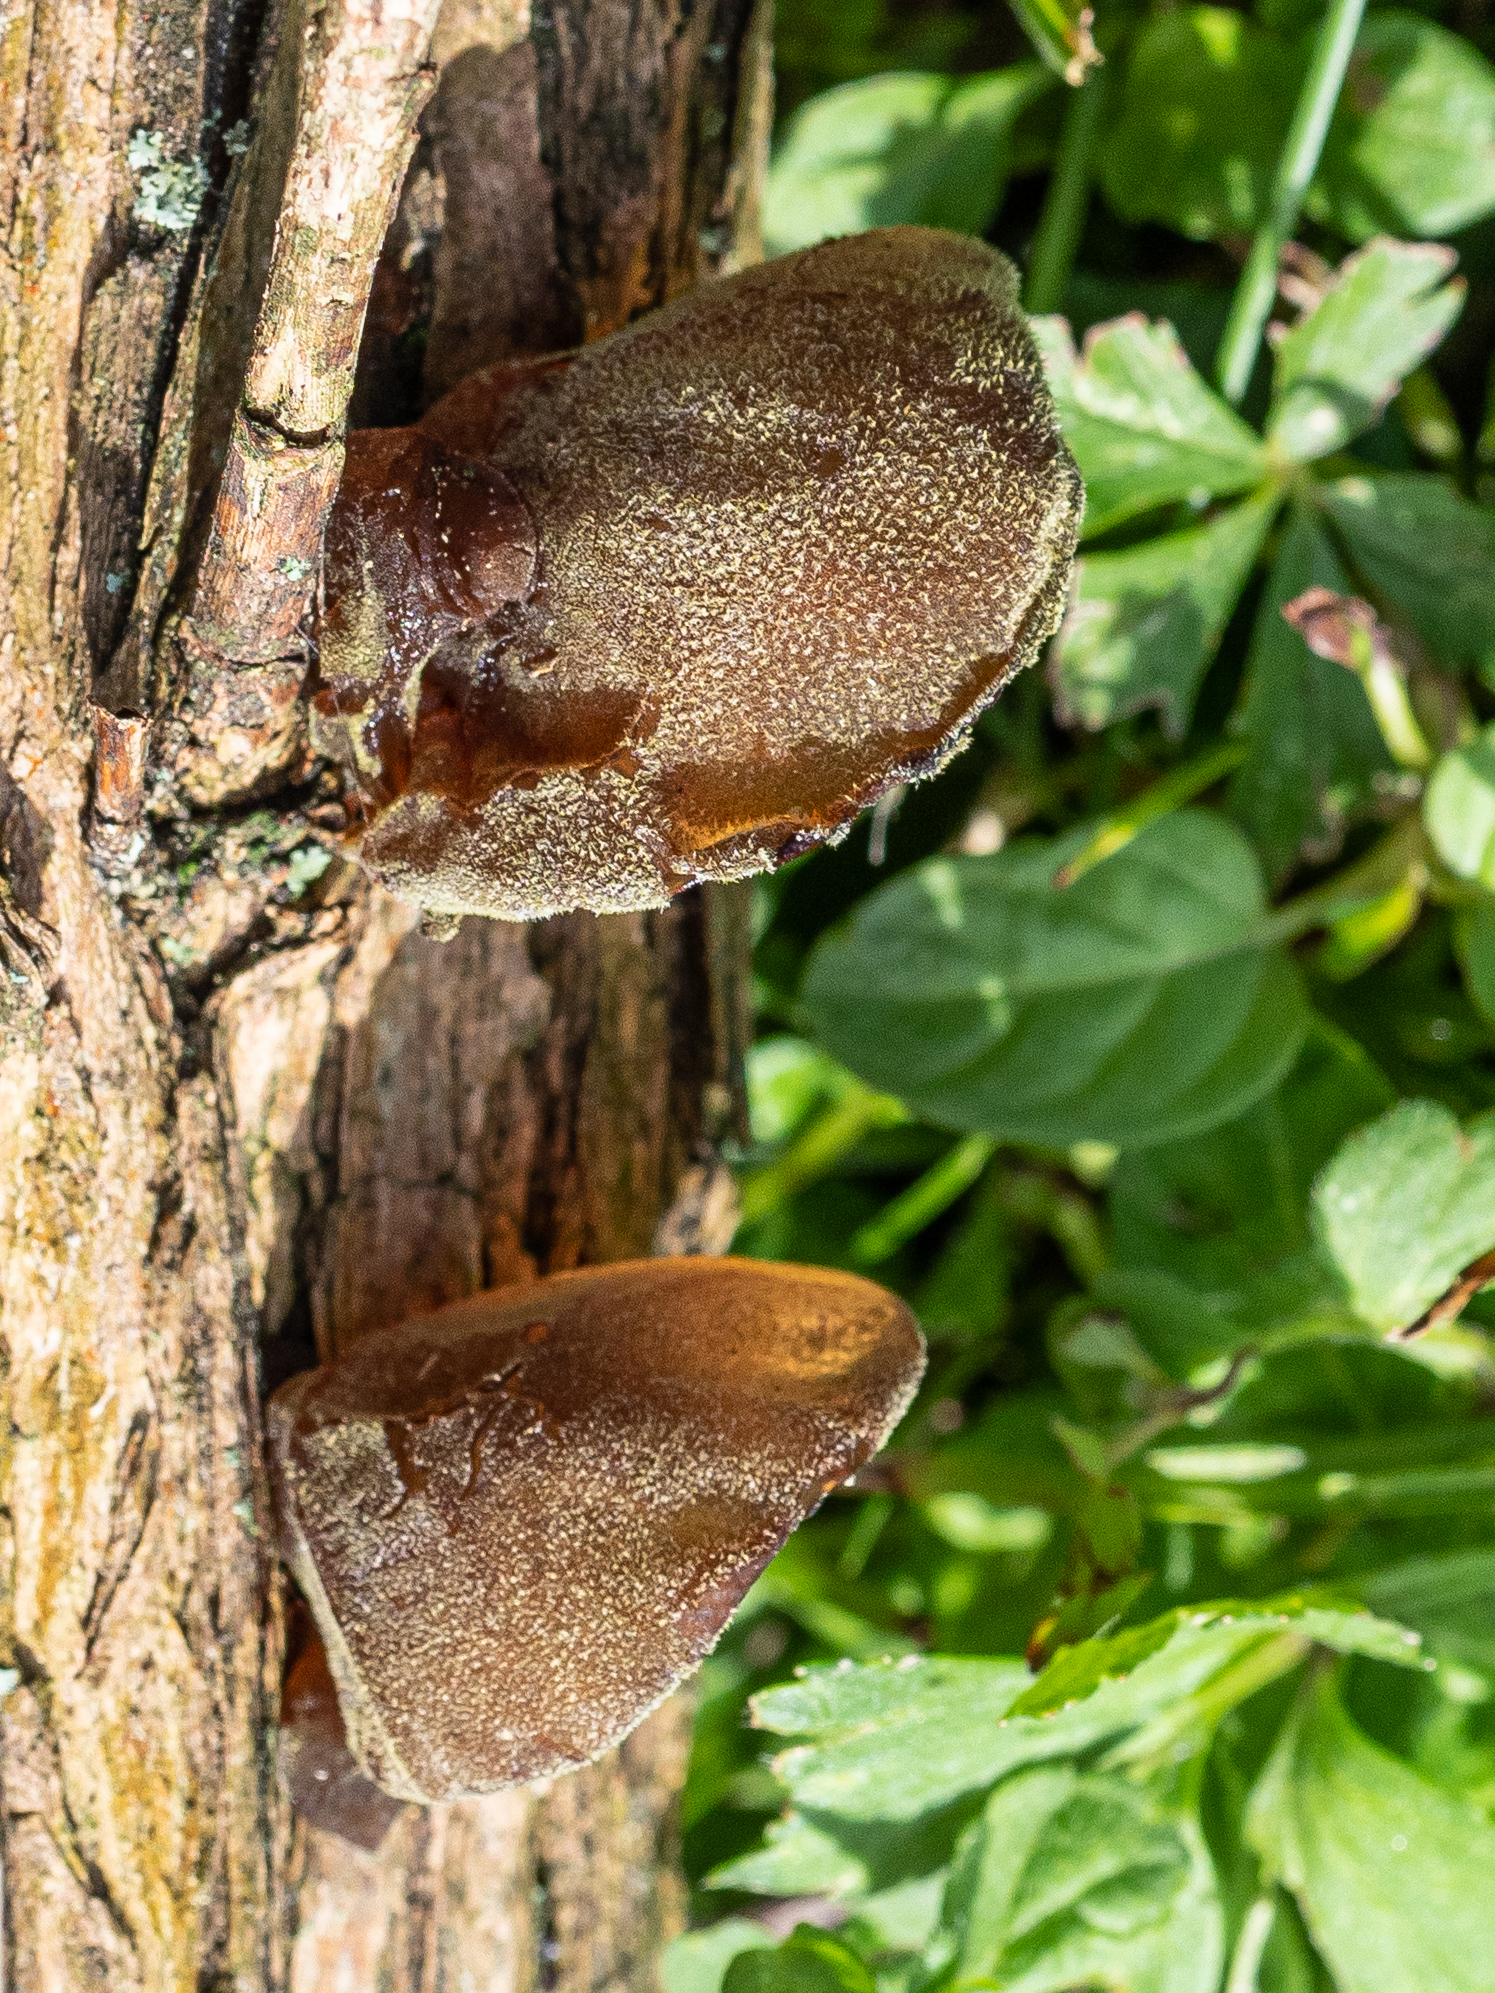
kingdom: Fungi
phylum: Basidiomycota
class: Agaricomycetes
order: Auriculariales
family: Auriculariaceae
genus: Auricularia
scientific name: Auricularia auricula-judae
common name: Jelly ear
